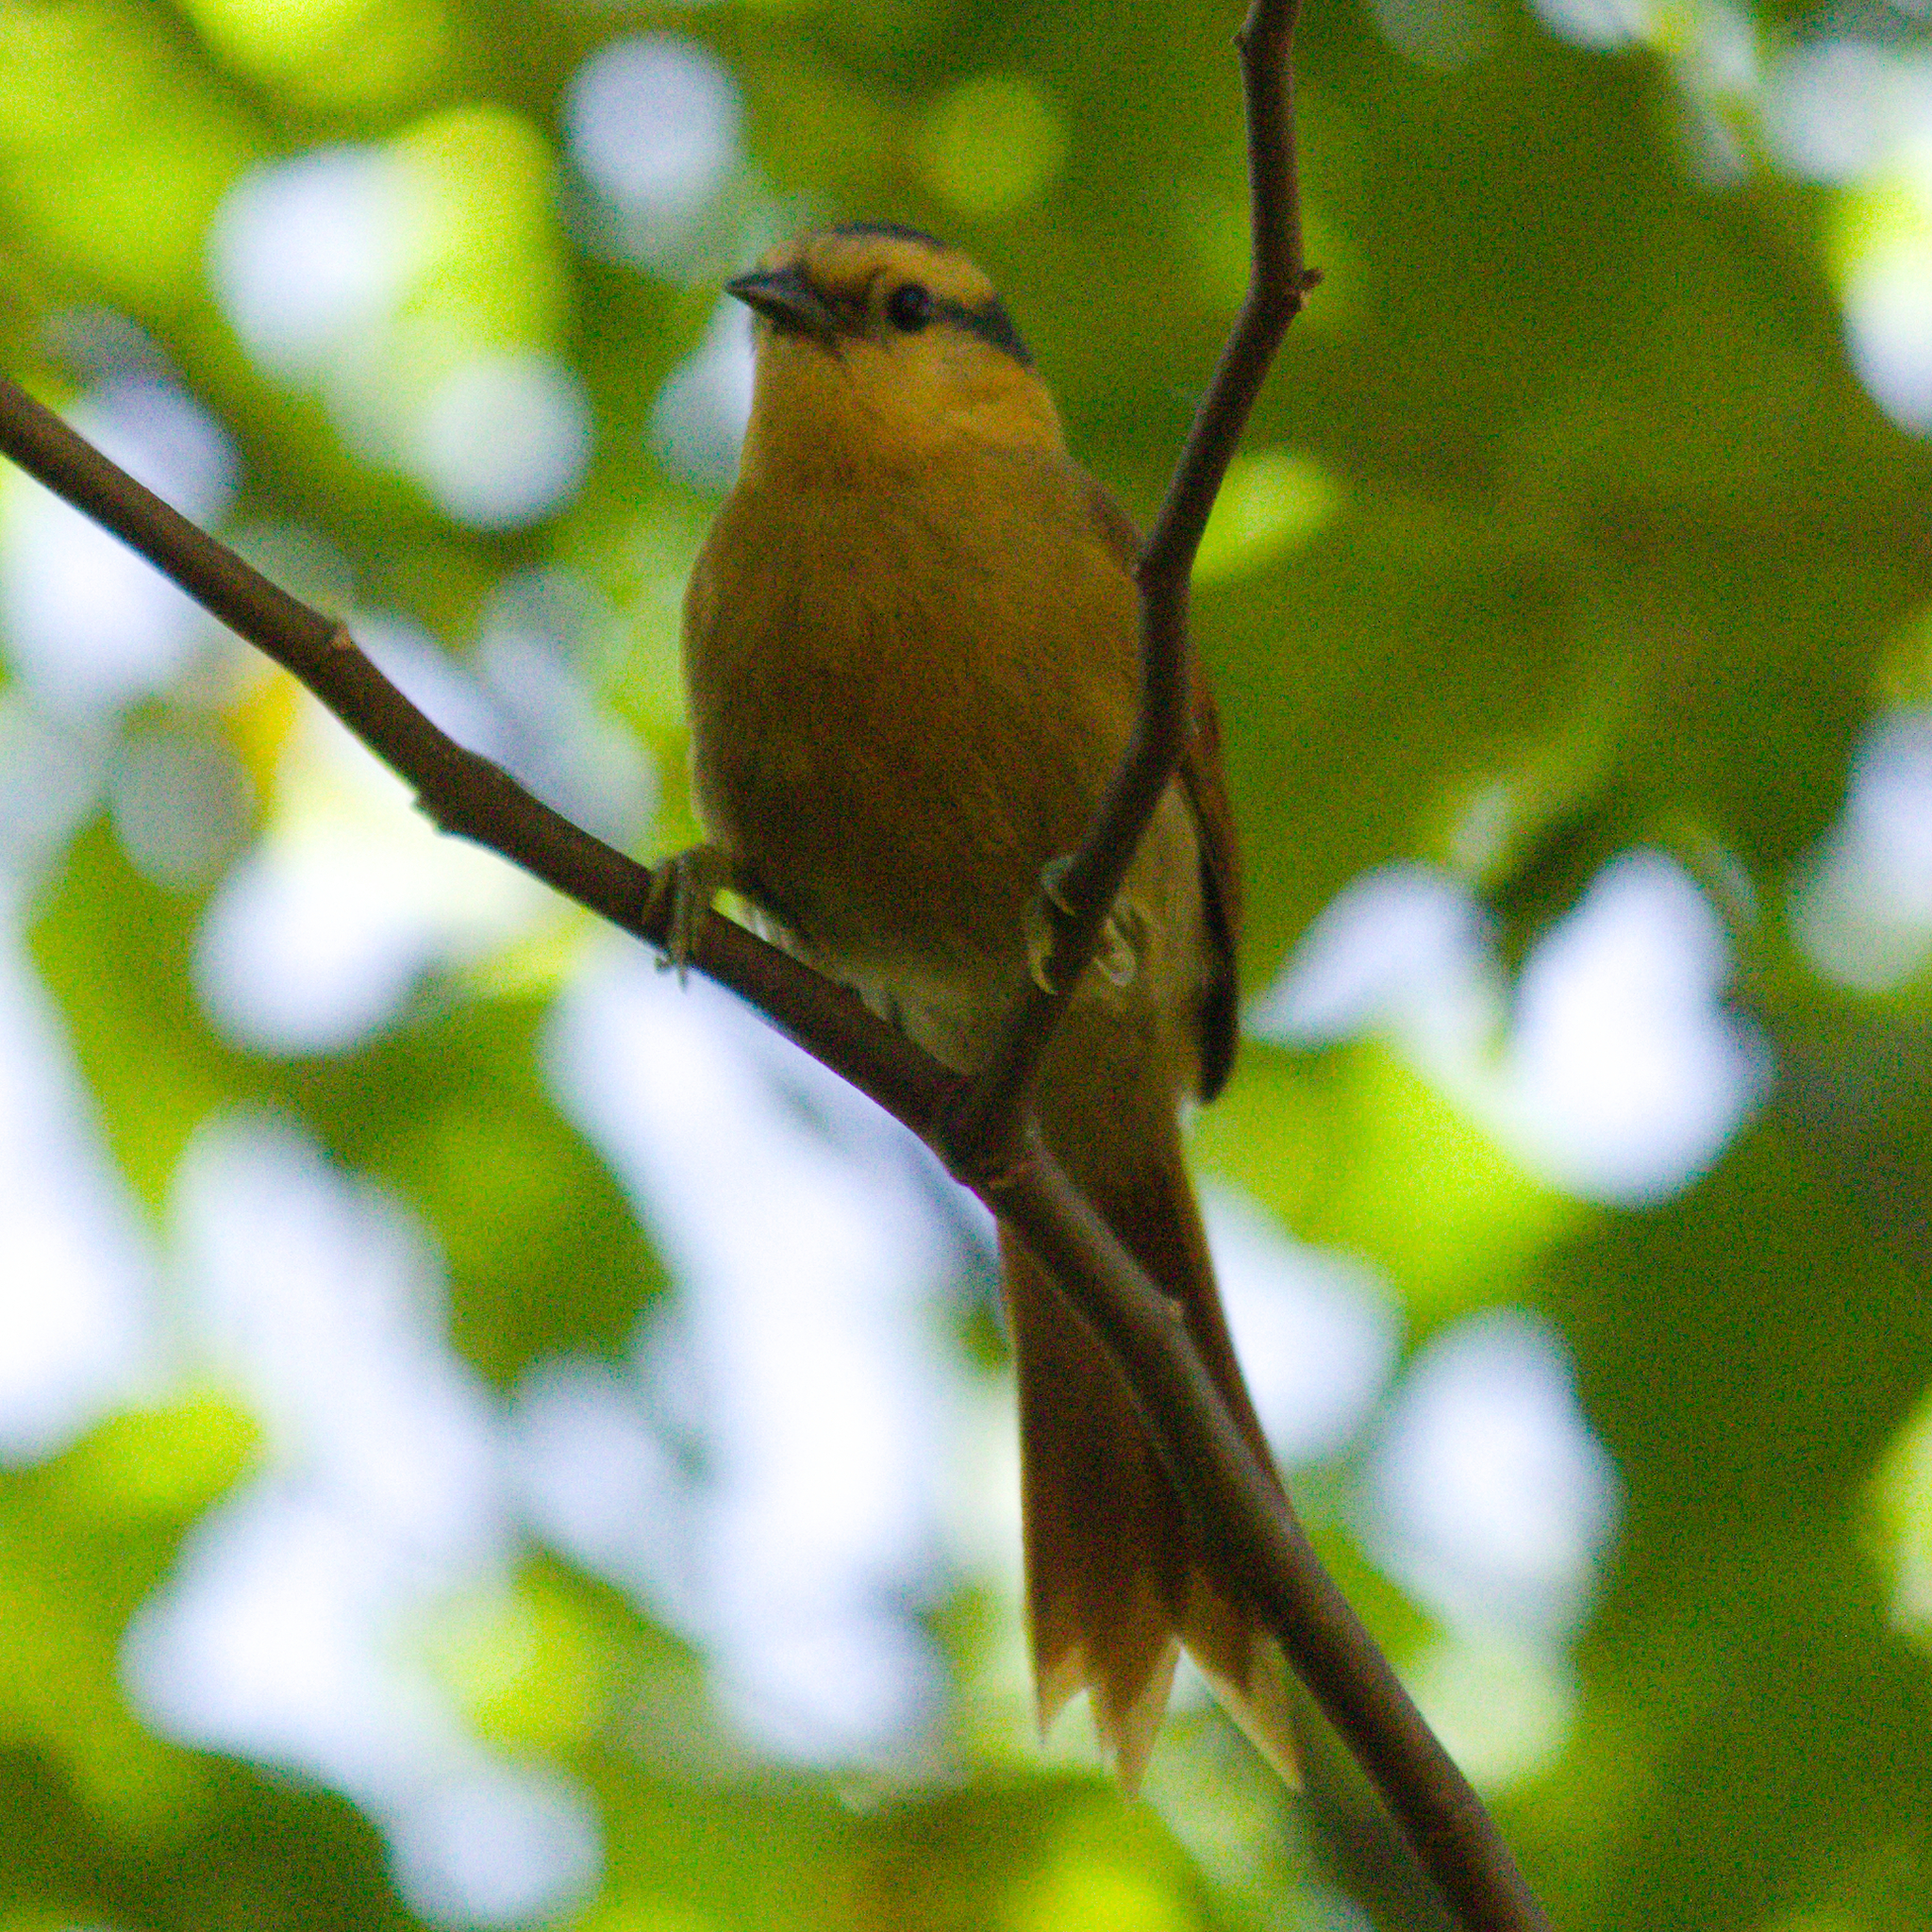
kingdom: Animalia
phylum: Chordata
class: Aves
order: Passeriformes
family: Furnariidae
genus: Philydor
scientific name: Philydor rufum
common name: Buff-fronted foliage-gleaner
